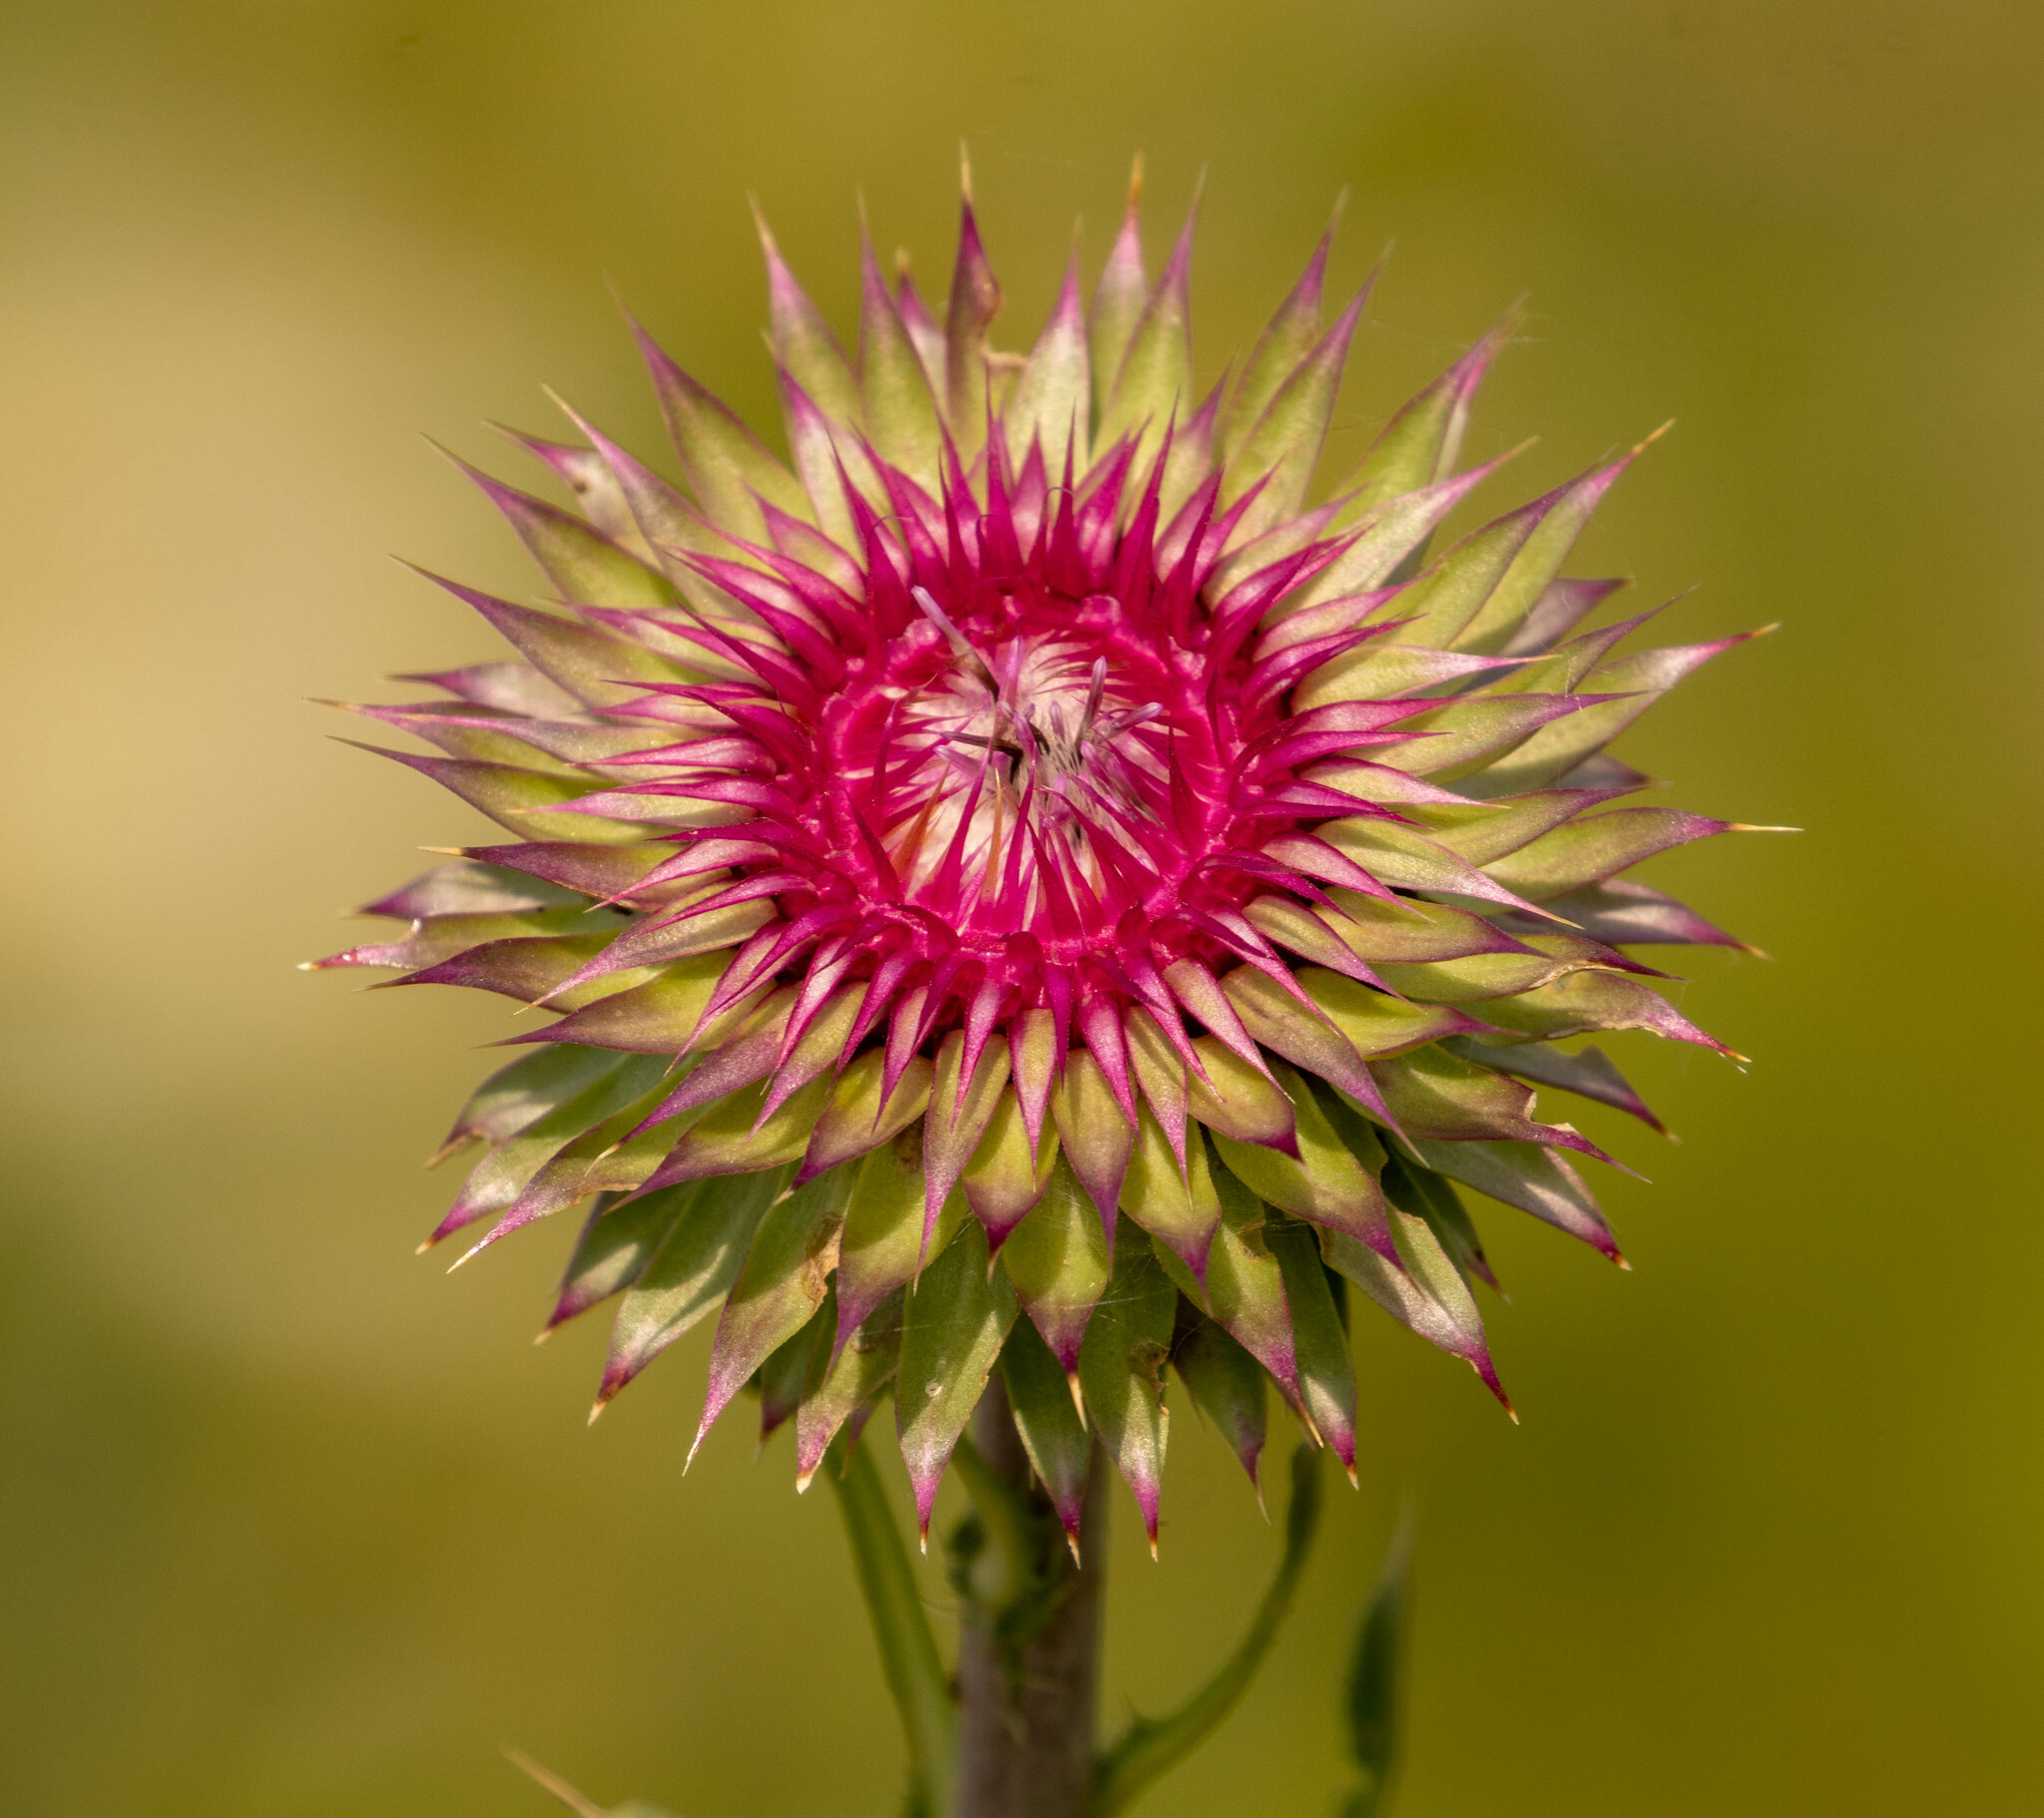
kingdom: Plantae
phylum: Tracheophyta
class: Magnoliopsida
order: Asterales
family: Asteraceae
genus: Carduus
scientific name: Carduus nutans
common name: Musk thistle
